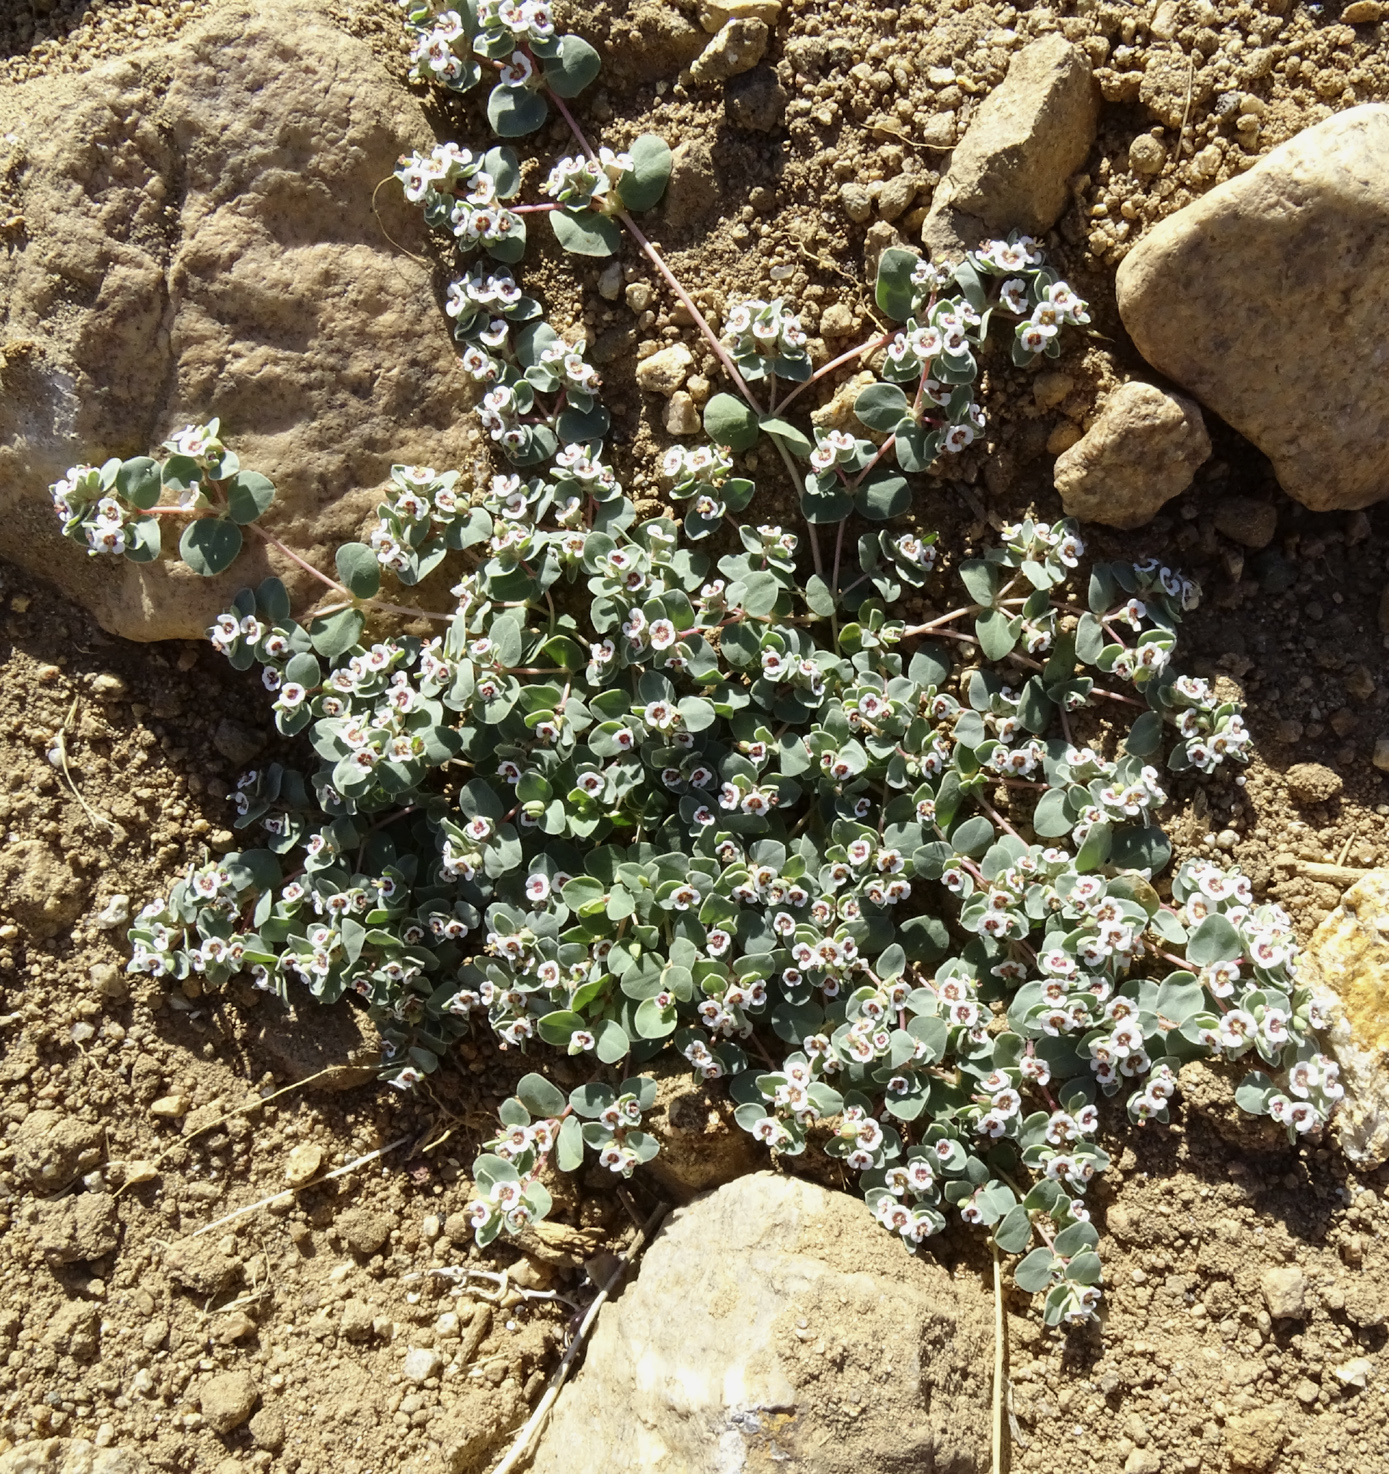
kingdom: Plantae
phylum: Tracheophyta
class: Magnoliopsida
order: Malpighiales
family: Euphorbiaceae
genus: Euphorbia
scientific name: Euphorbia albomarginata
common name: Whitemargin sandmat
